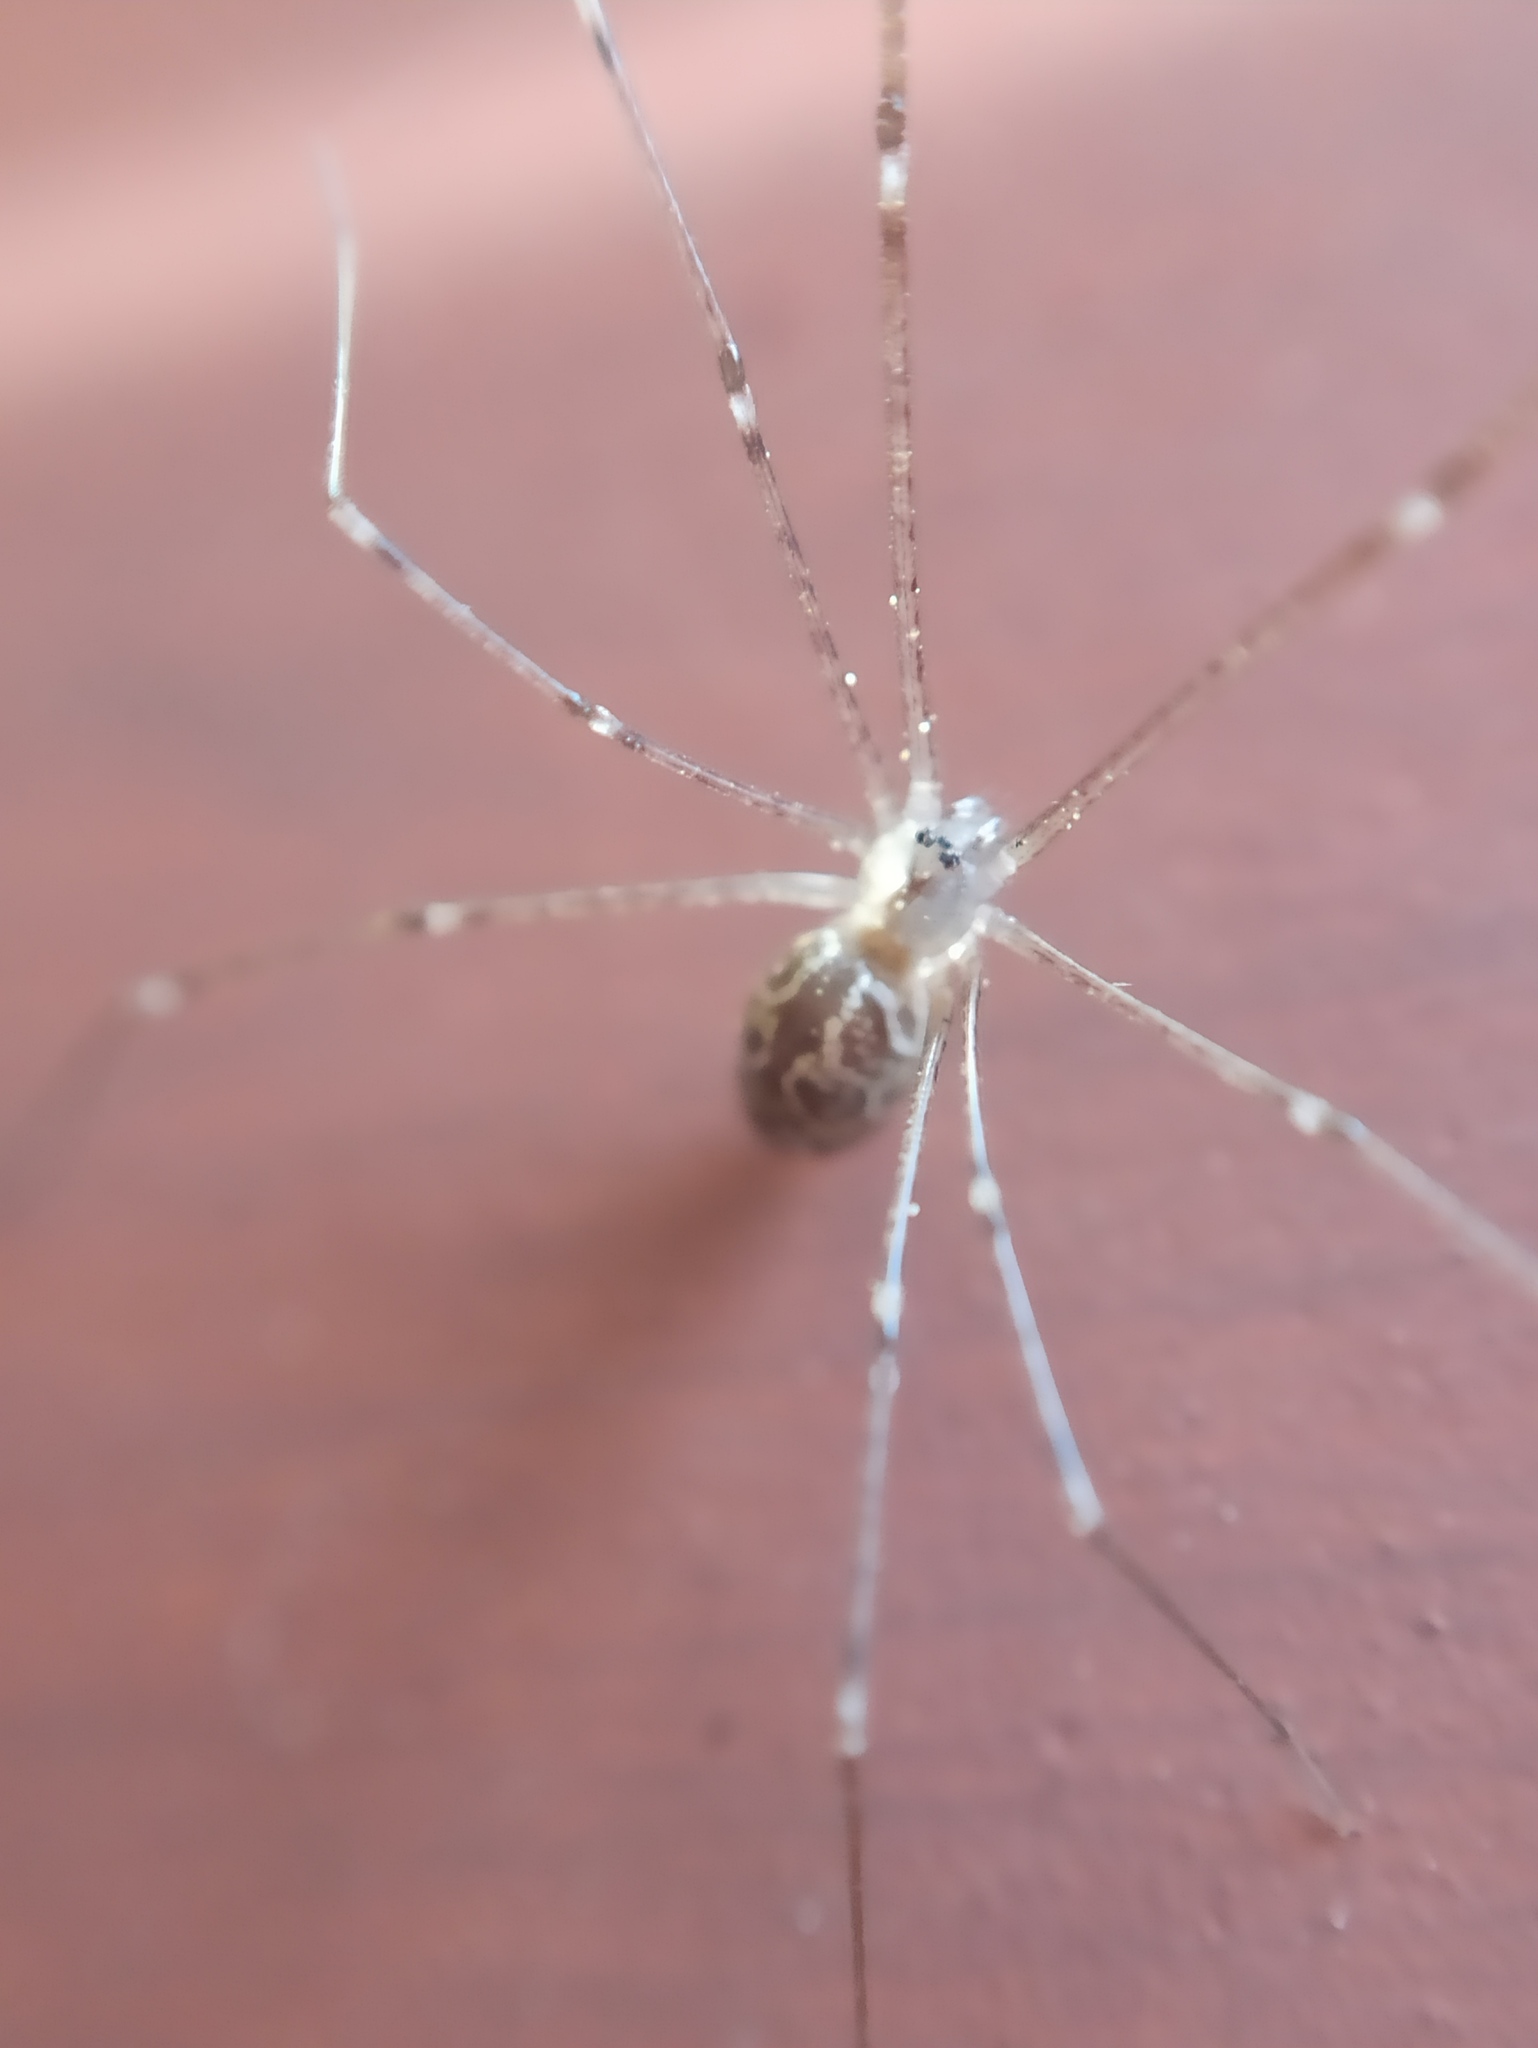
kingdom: Animalia
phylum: Arthropoda
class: Arachnida
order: Araneae
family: Pholcidae
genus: Holocnemus
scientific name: Holocnemus pluchei
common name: Marbled cellar spider
